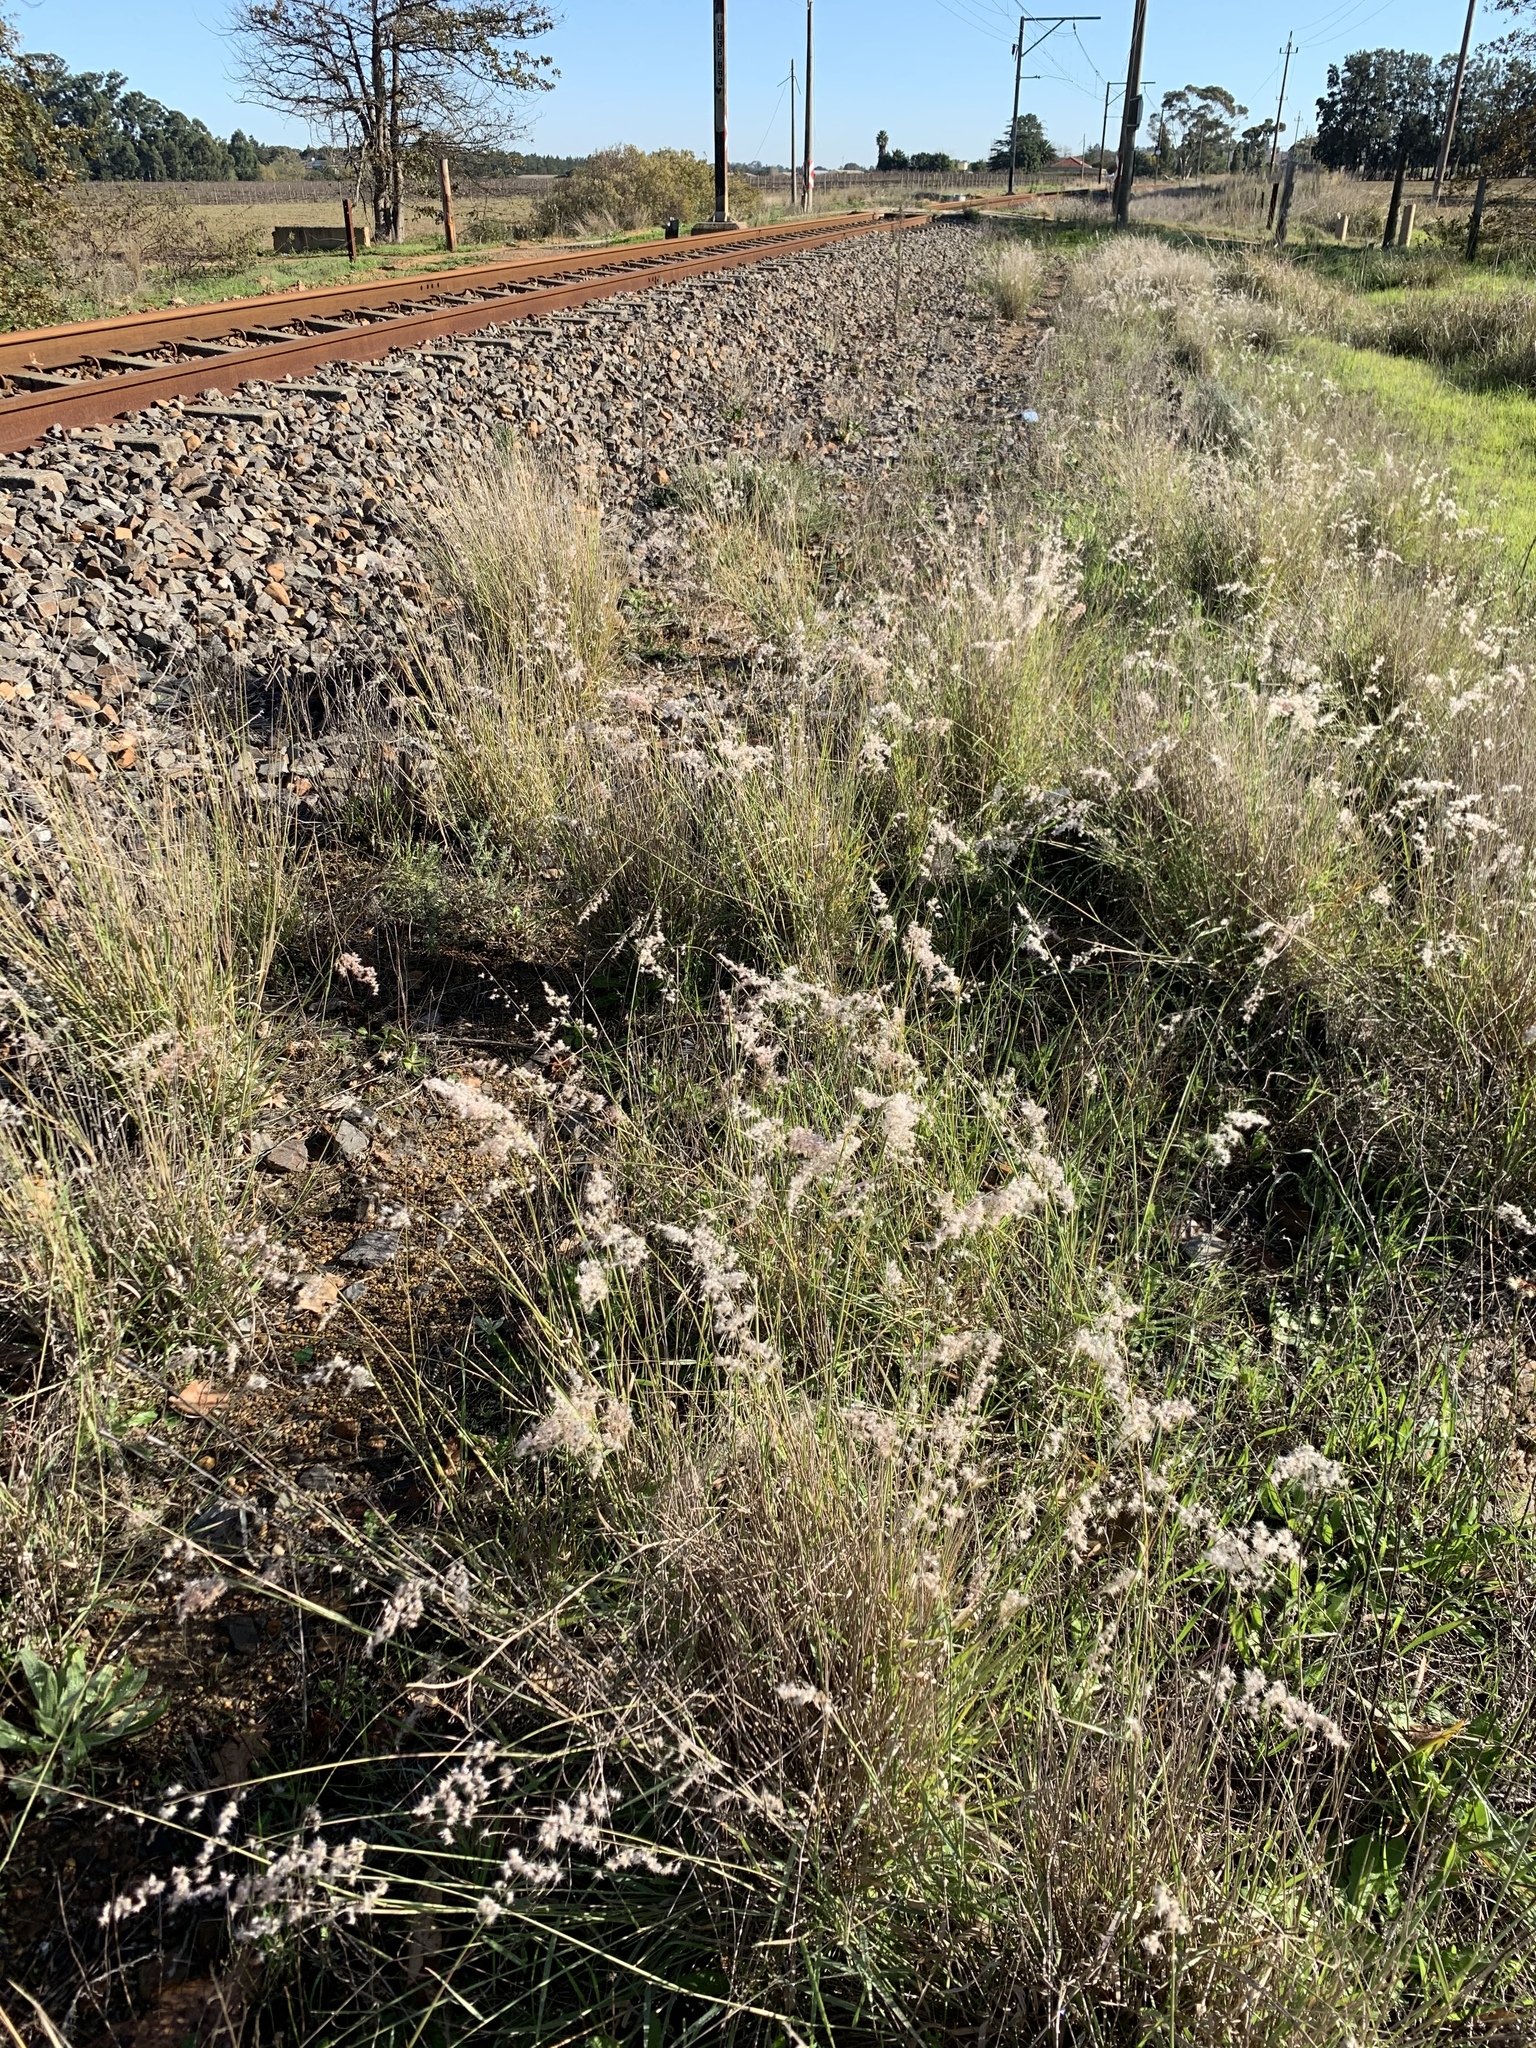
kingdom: Plantae
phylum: Tracheophyta
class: Liliopsida
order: Poales
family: Poaceae
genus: Melinis
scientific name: Melinis repens
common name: Rose natal grass
